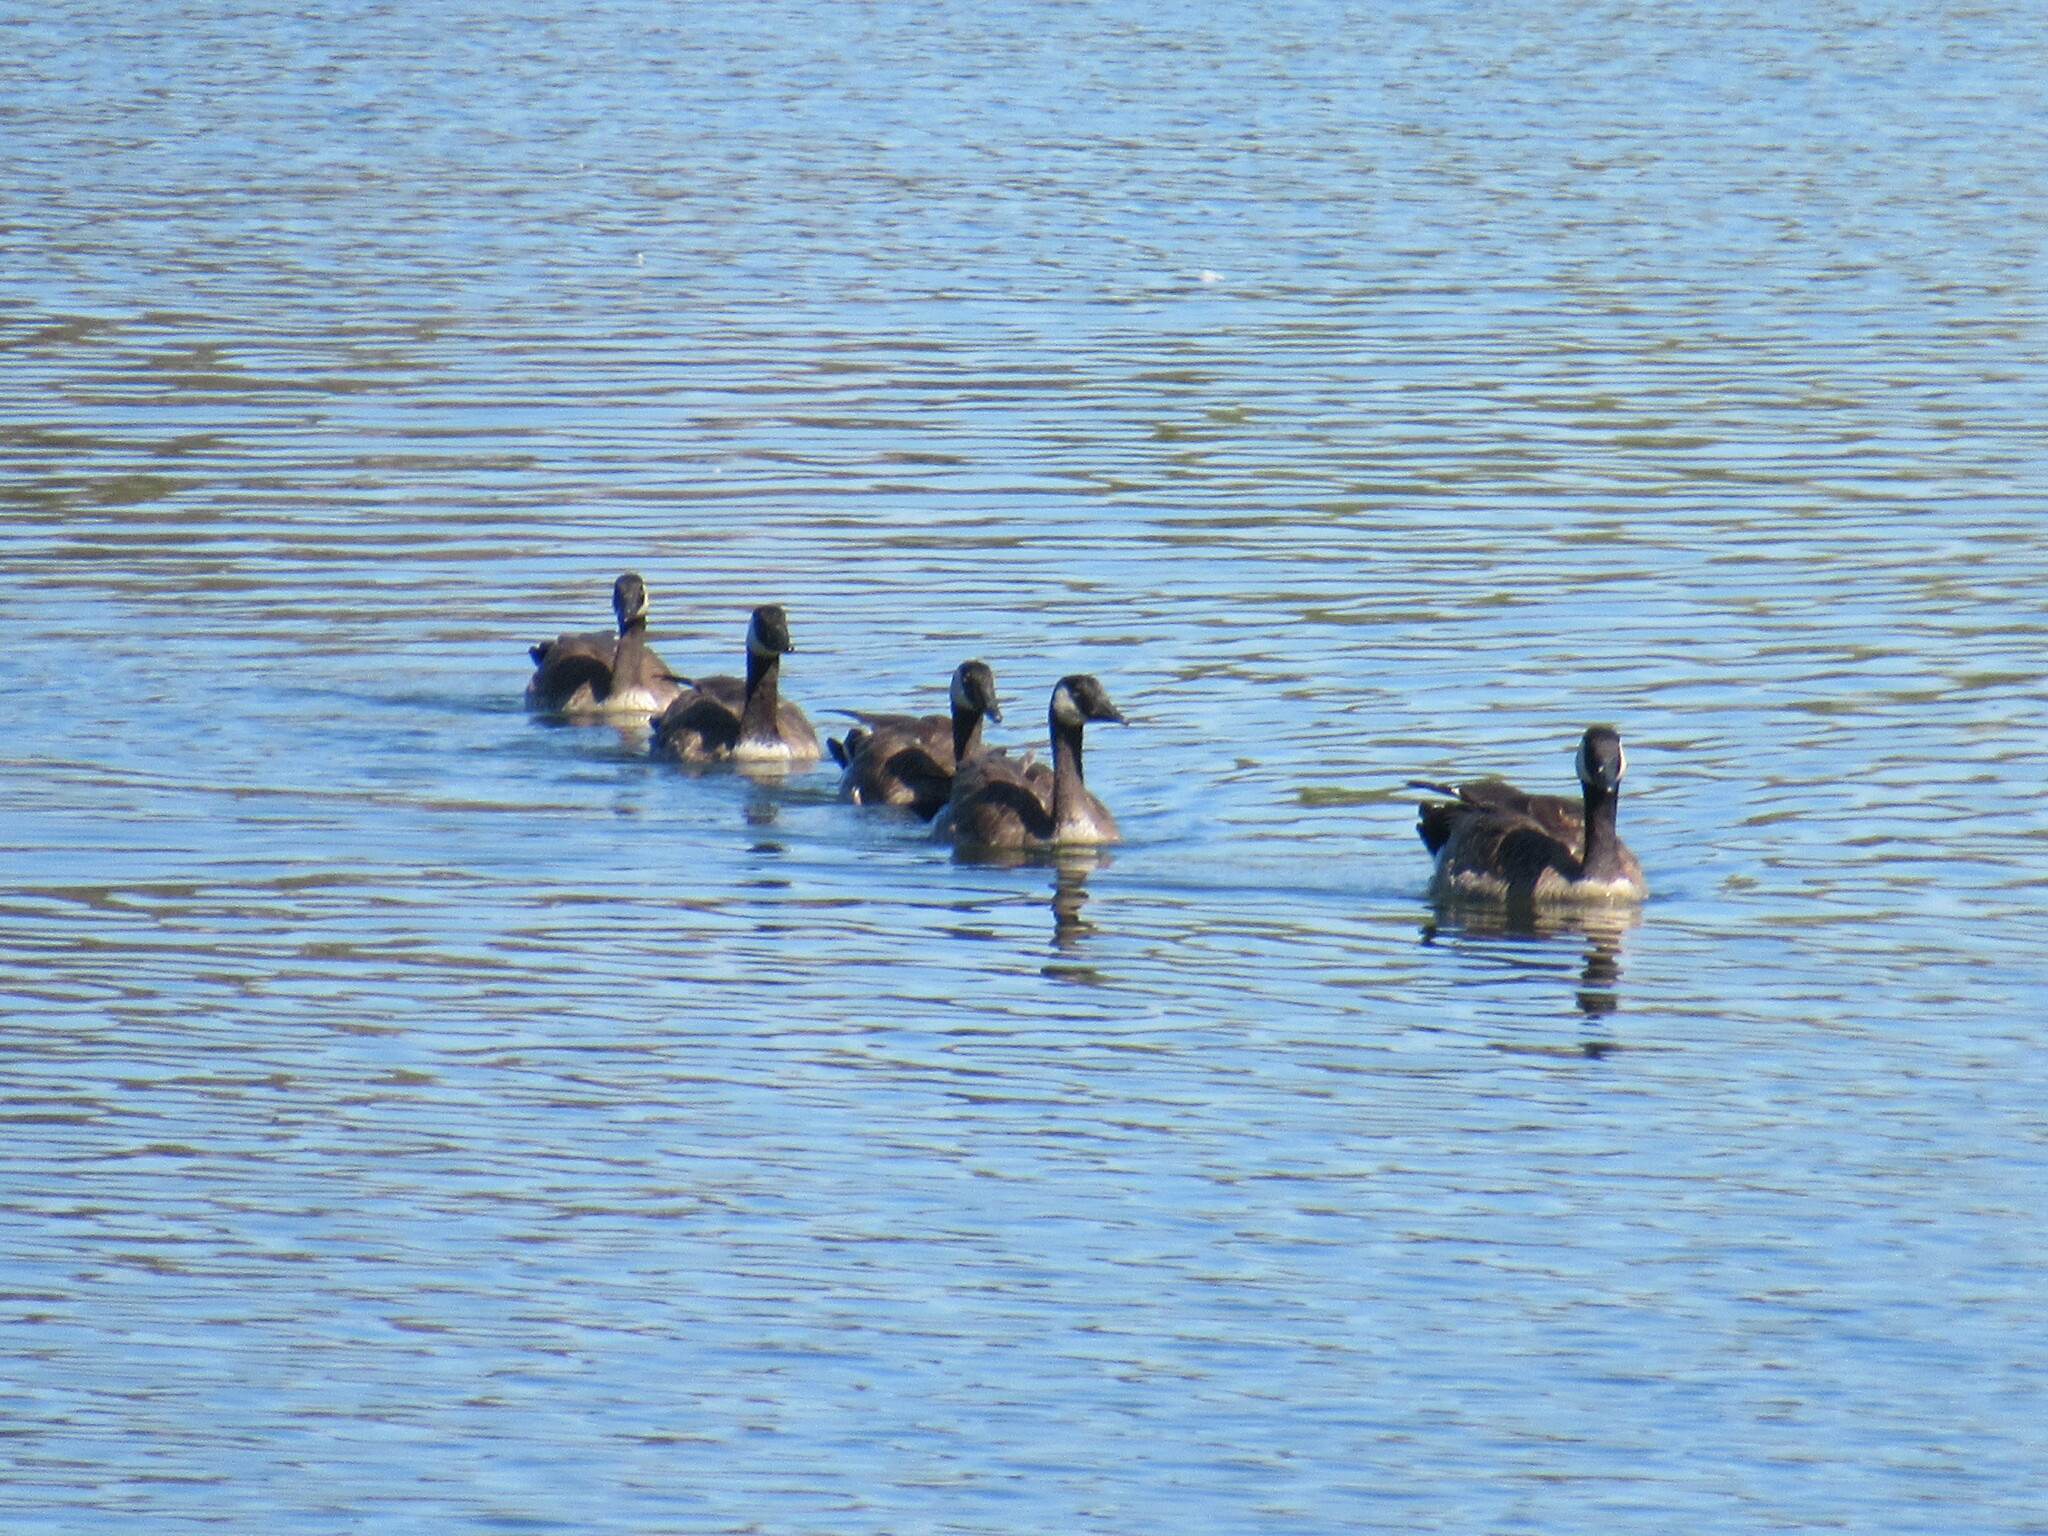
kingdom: Animalia
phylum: Chordata
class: Aves
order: Anseriformes
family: Anatidae
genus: Branta
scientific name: Branta canadensis
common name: Canada goose
